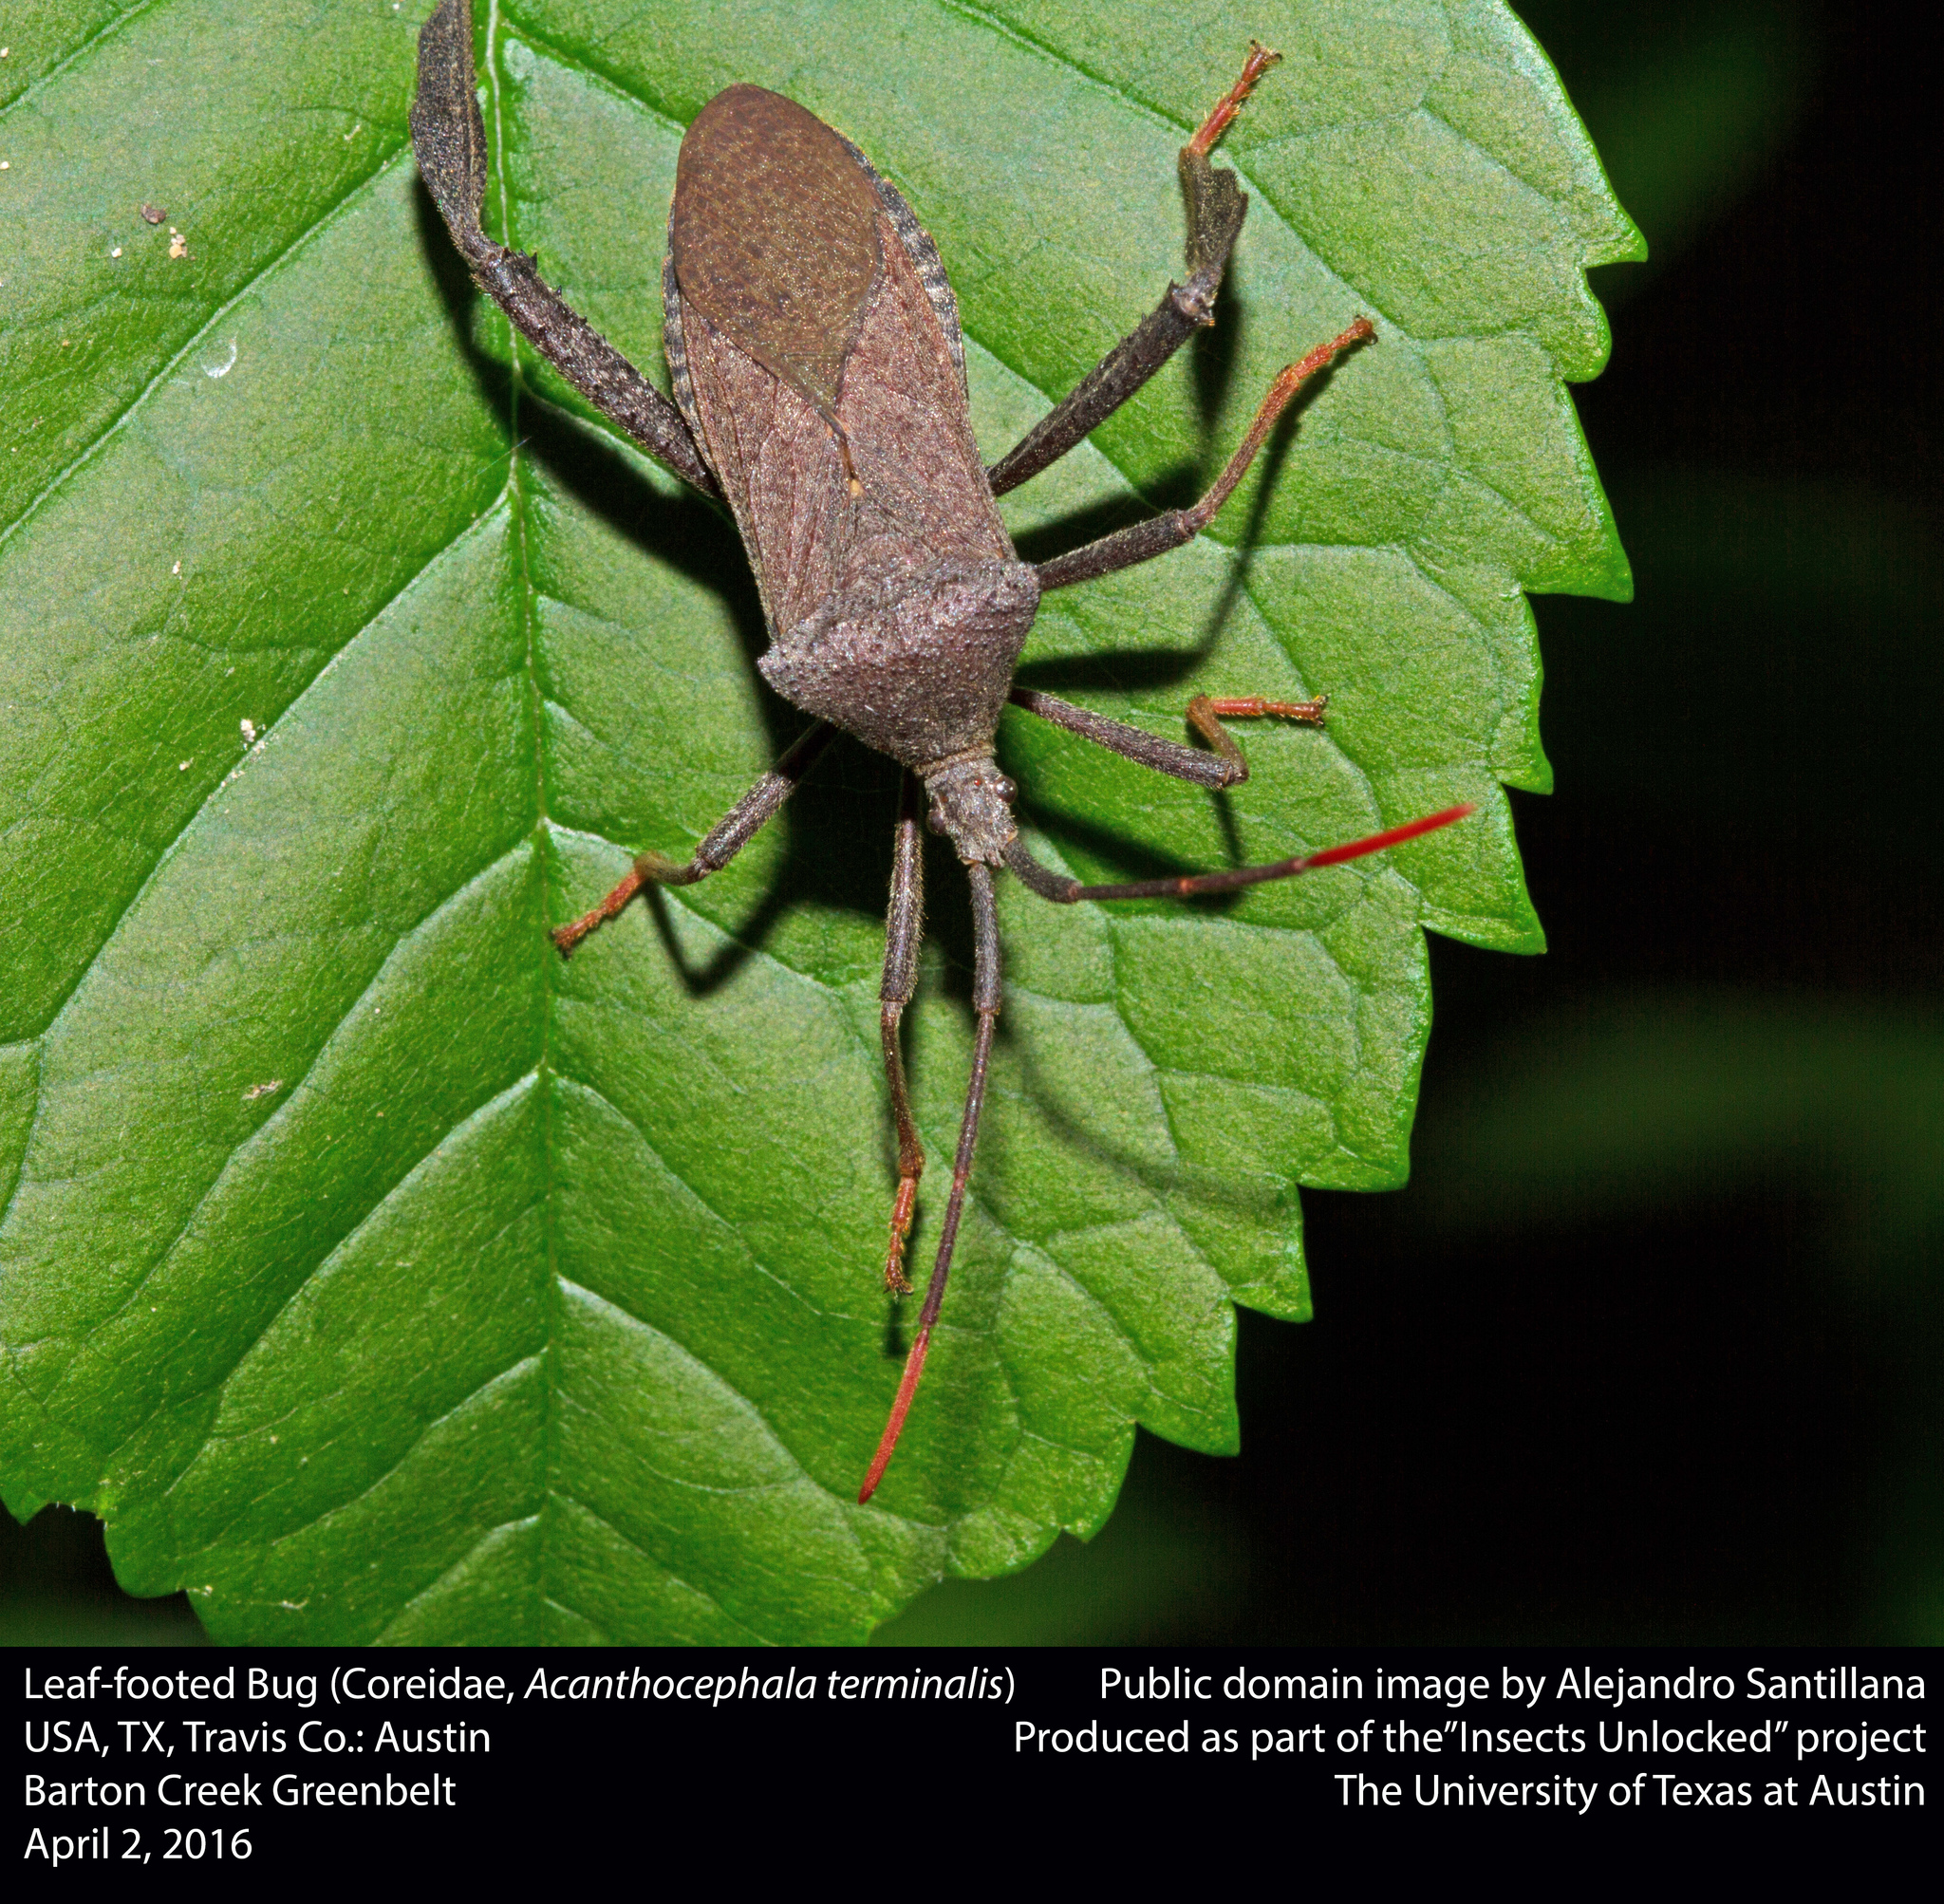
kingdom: Animalia
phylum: Arthropoda
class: Insecta
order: Hemiptera
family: Coreidae
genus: Acanthocephala
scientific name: Acanthocephala terminalis
